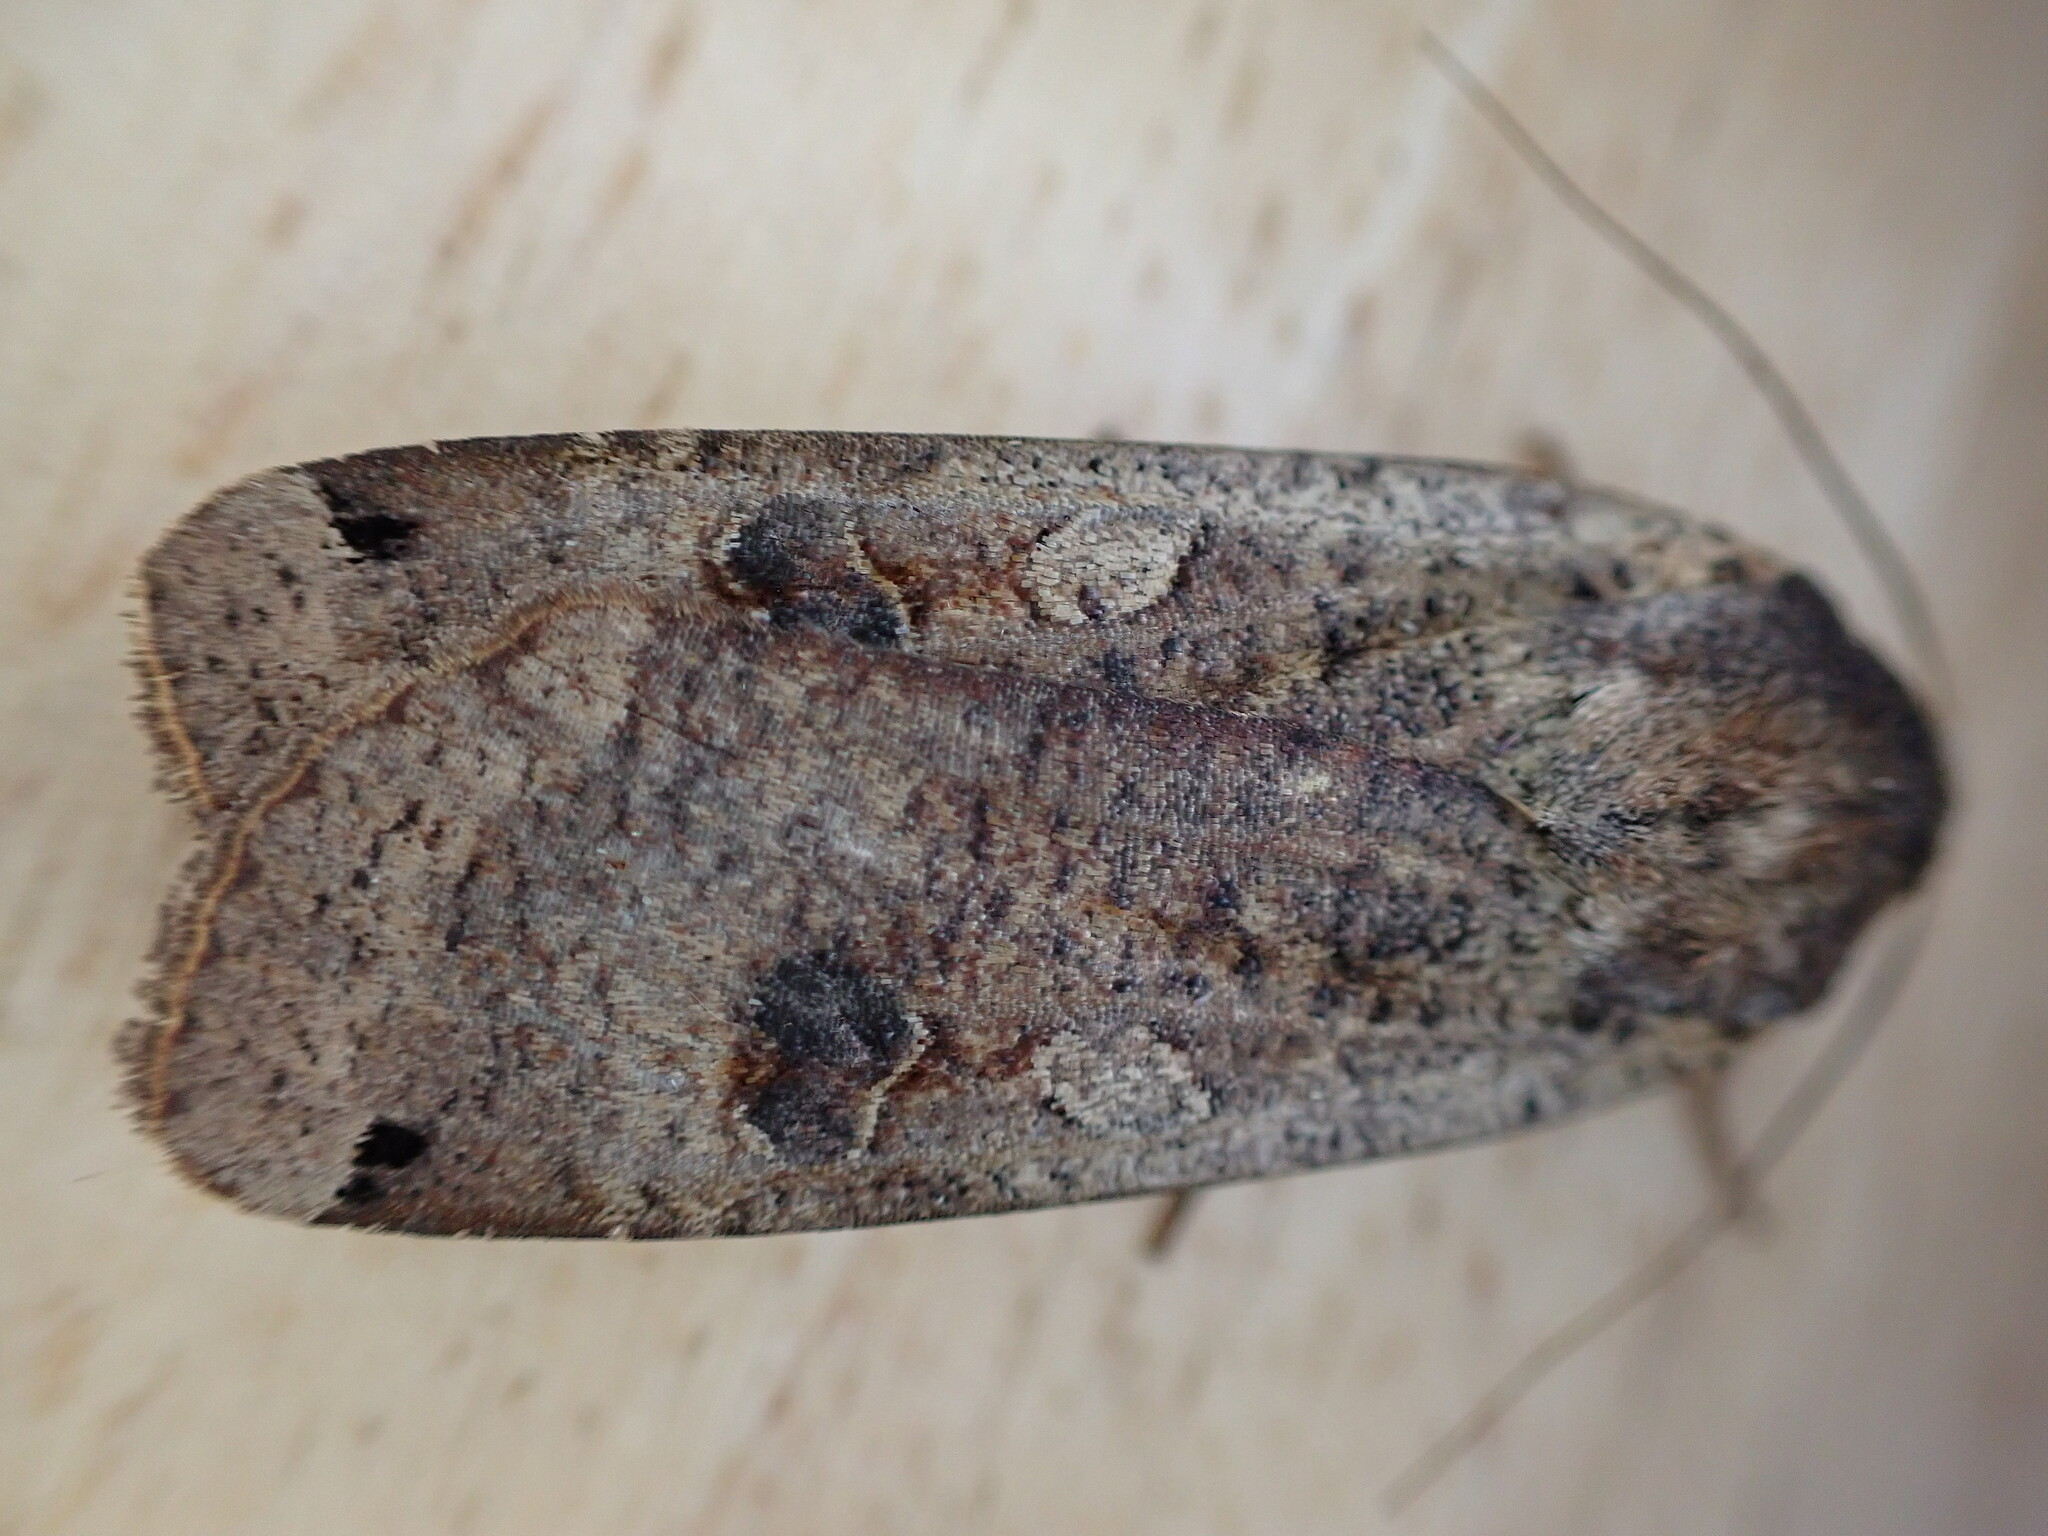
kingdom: Animalia
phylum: Arthropoda
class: Insecta
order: Lepidoptera
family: Noctuidae
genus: Noctua
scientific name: Noctua pronuba
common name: Large yellow underwing
